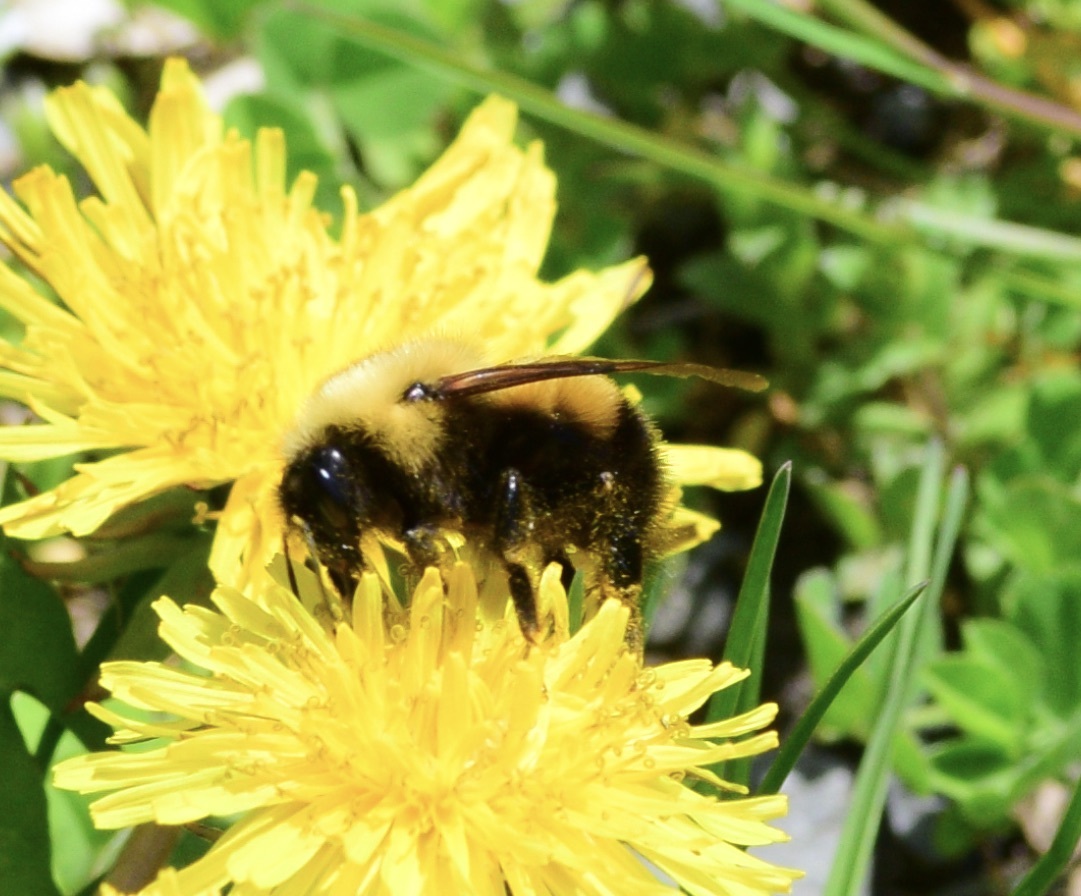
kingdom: Animalia
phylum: Arthropoda
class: Insecta
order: Hymenoptera
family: Apidae
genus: Bombus
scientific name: Bombus perplexus
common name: Confusing bumble bee
